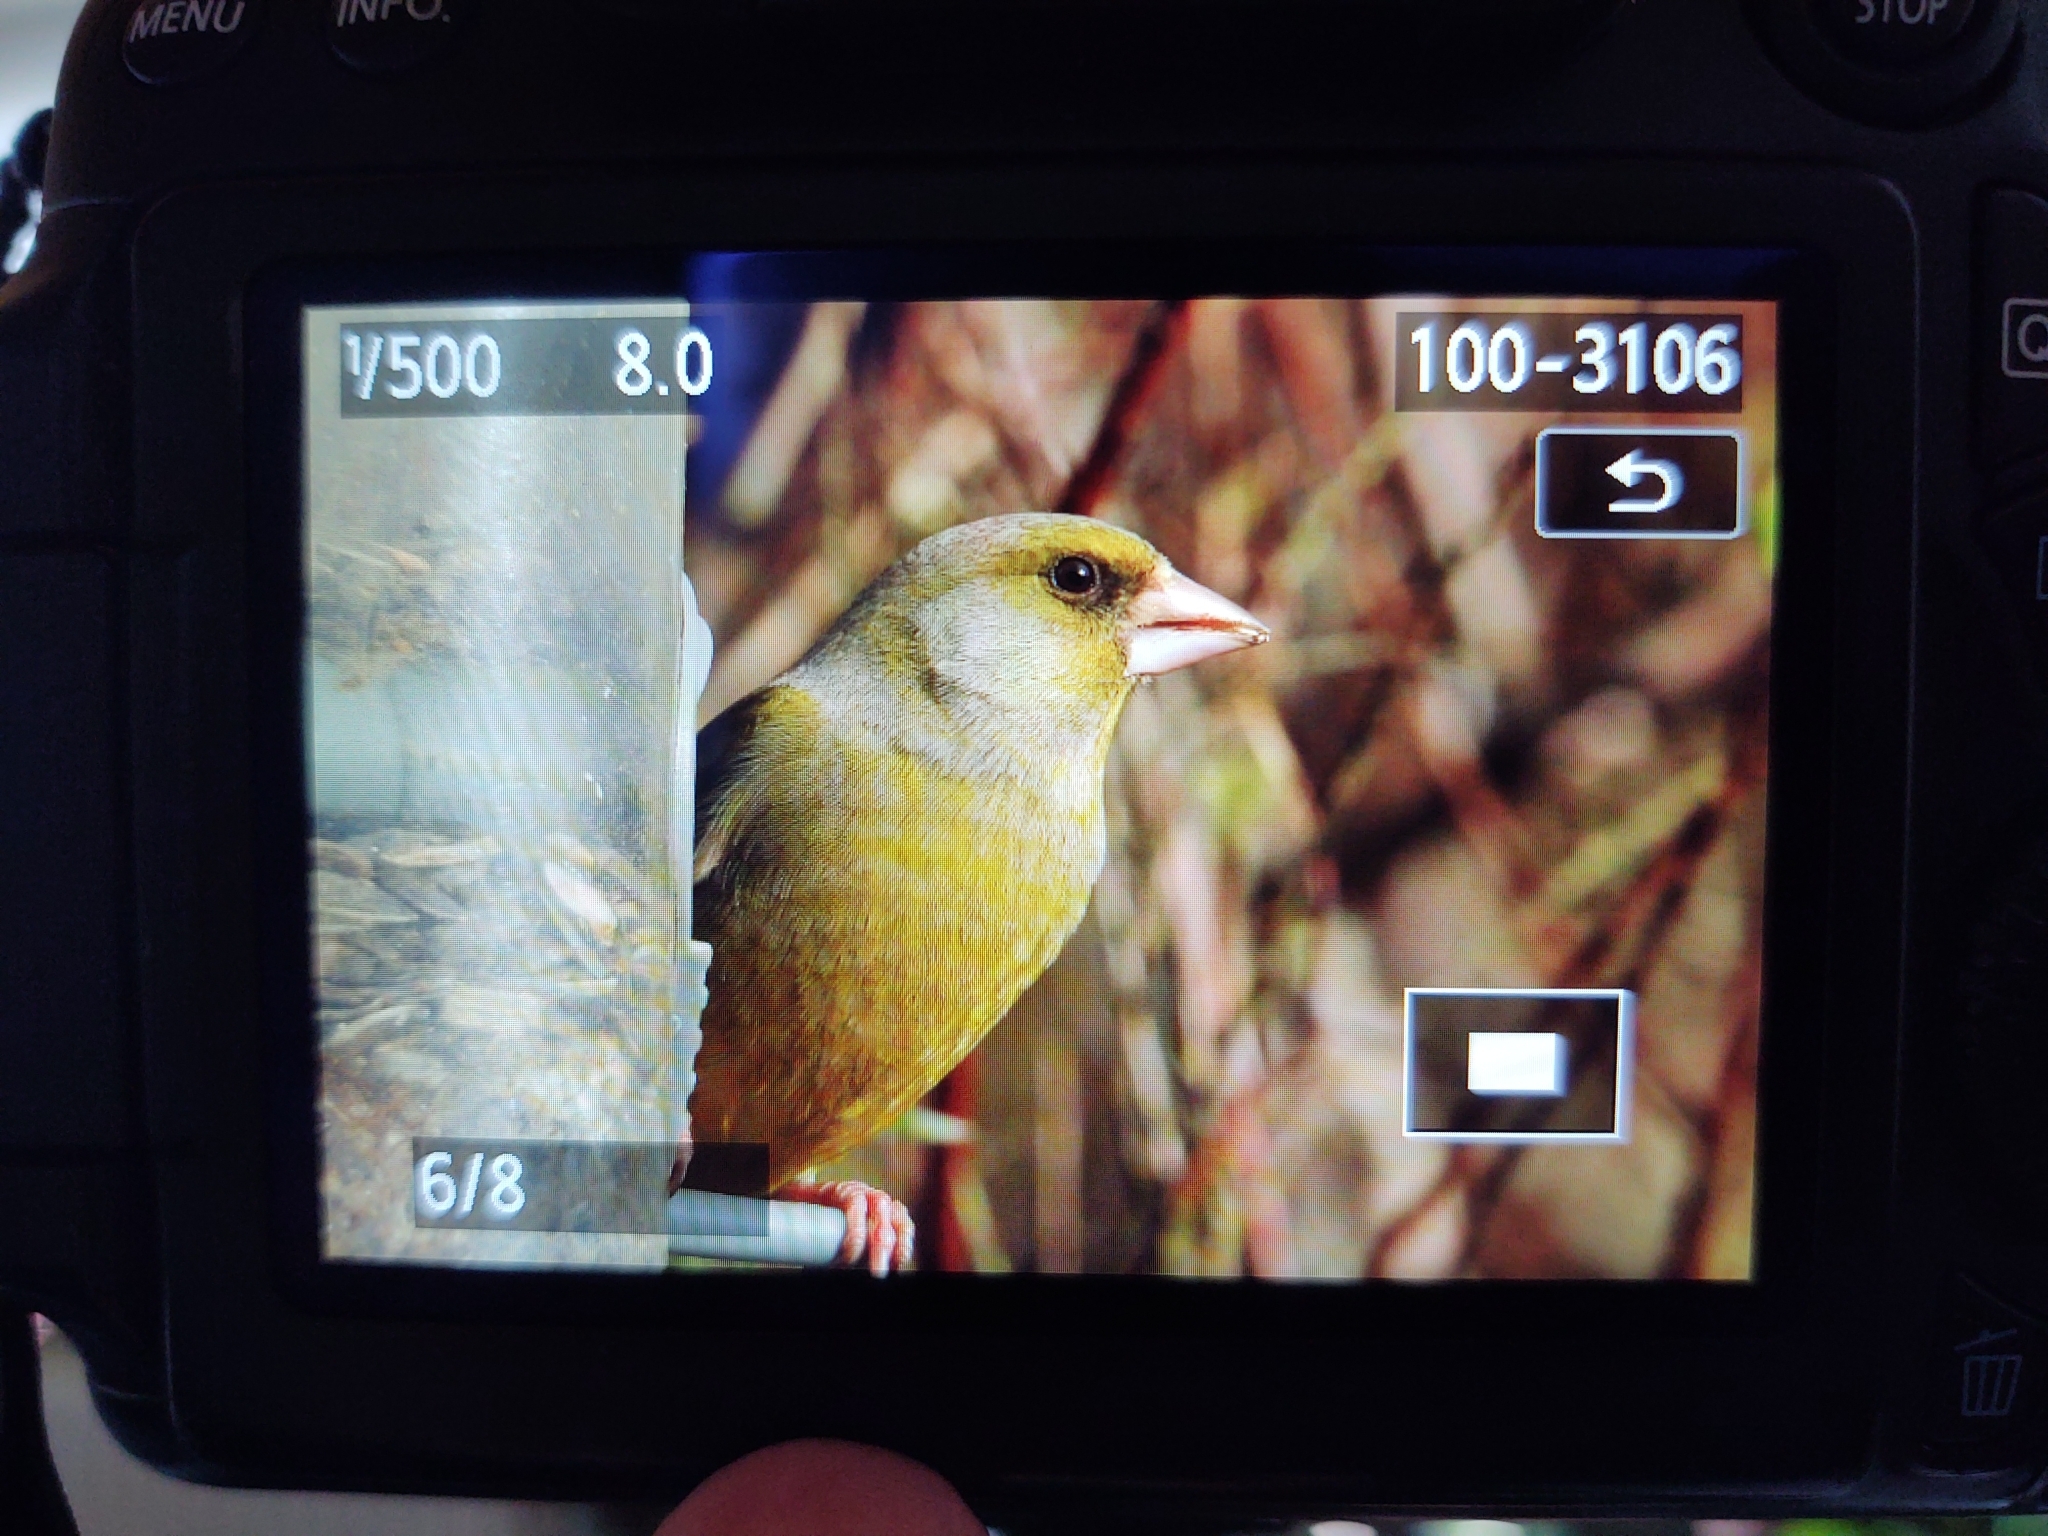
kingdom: Plantae
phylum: Tracheophyta
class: Liliopsida
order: Poales
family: Poaceae
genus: Chloris
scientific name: Chloris chloris
